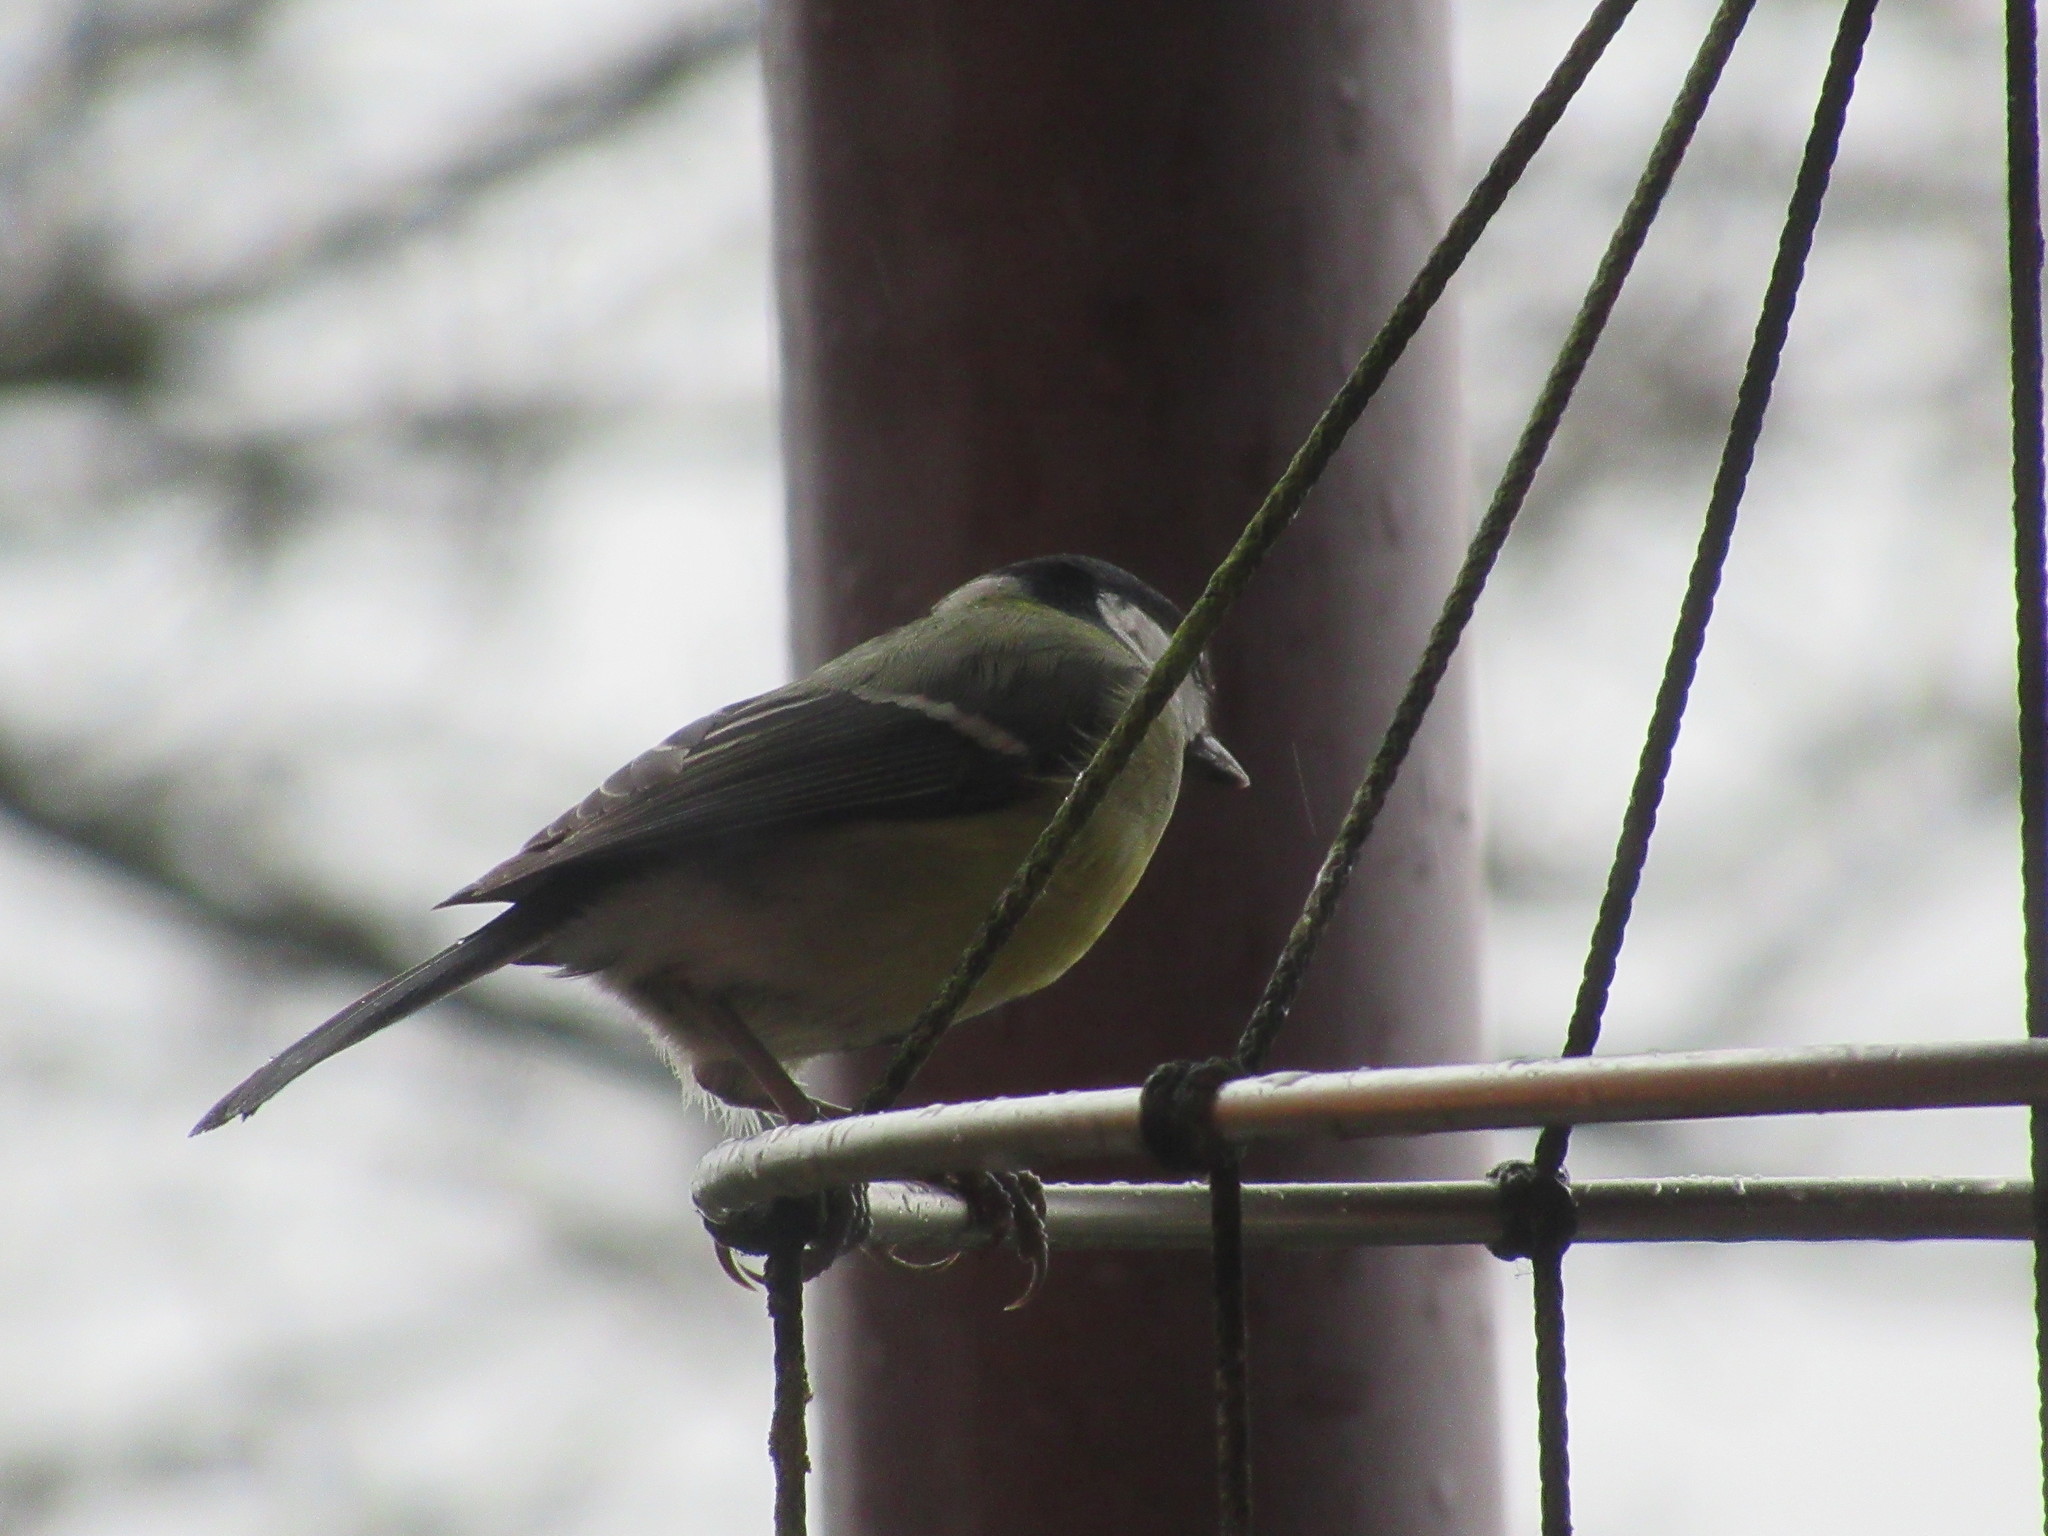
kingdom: Animalia
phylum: Chordata
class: Aves
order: Passeriformes
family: Paridae
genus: Parus
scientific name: Parus major
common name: Great tit
